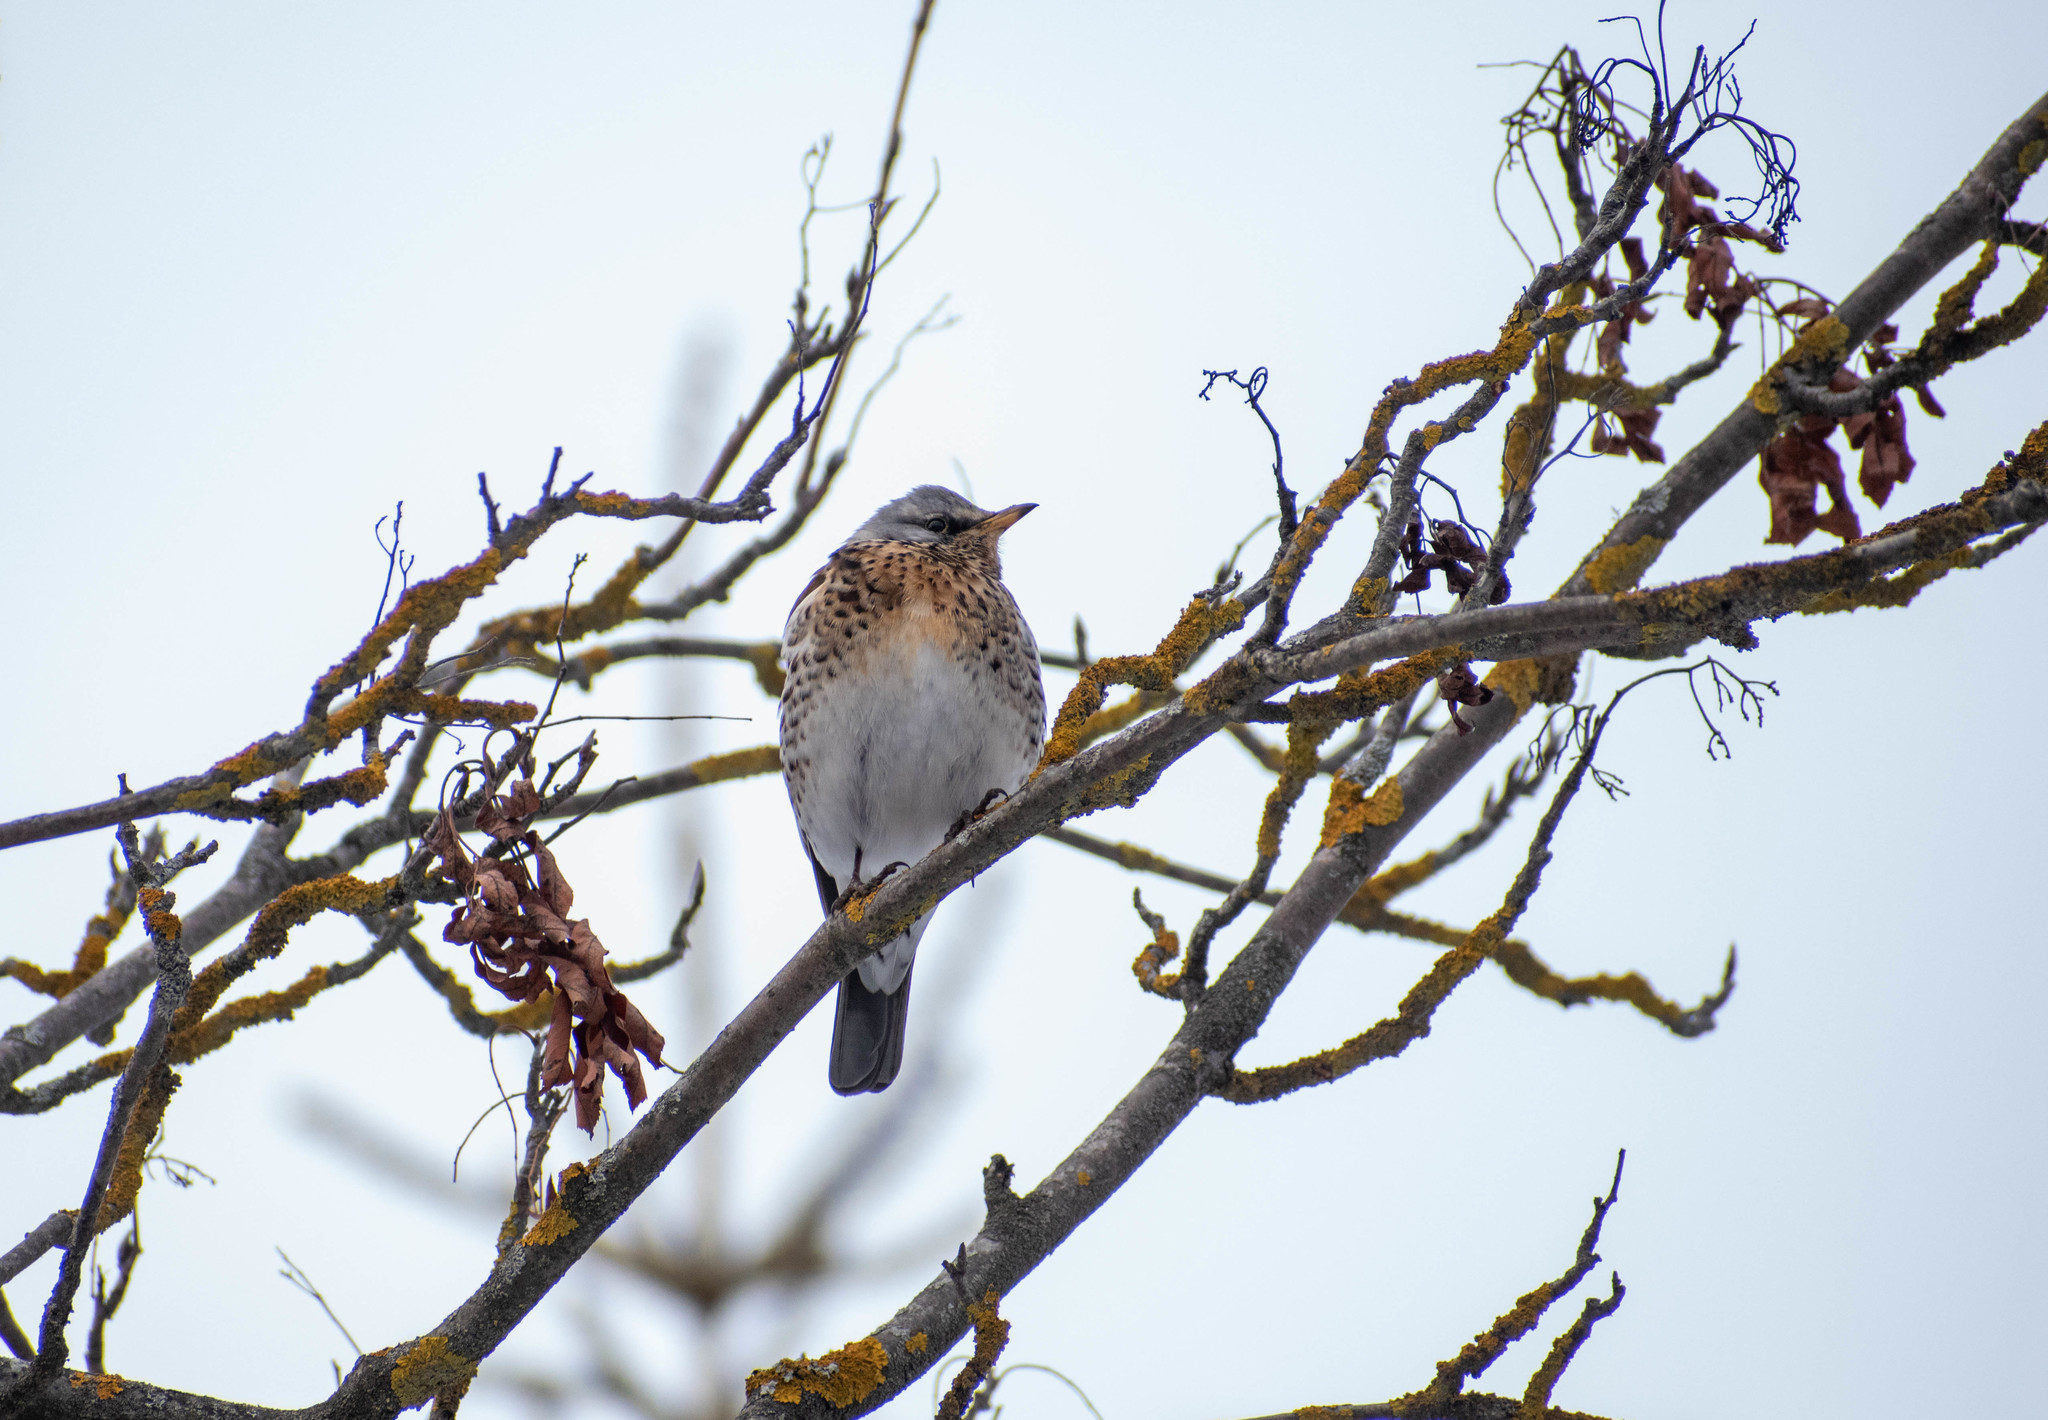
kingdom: Animalia
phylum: Chordata
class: Aves
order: Passeriformes
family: Turdidae
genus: Turdus
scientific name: Turdus pilaris
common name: Fieldfare
